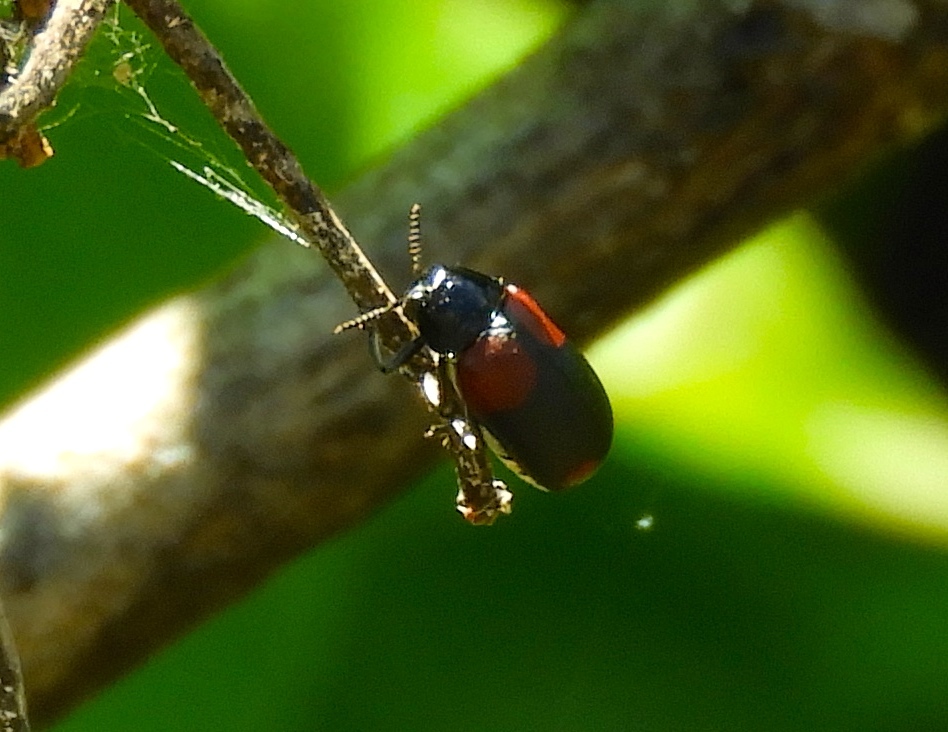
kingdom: Animalia
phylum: Arthropoda
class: Insecta
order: Coleoptera
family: Chrysomelidae
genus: Anomoea
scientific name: Anomoea rufifrons
